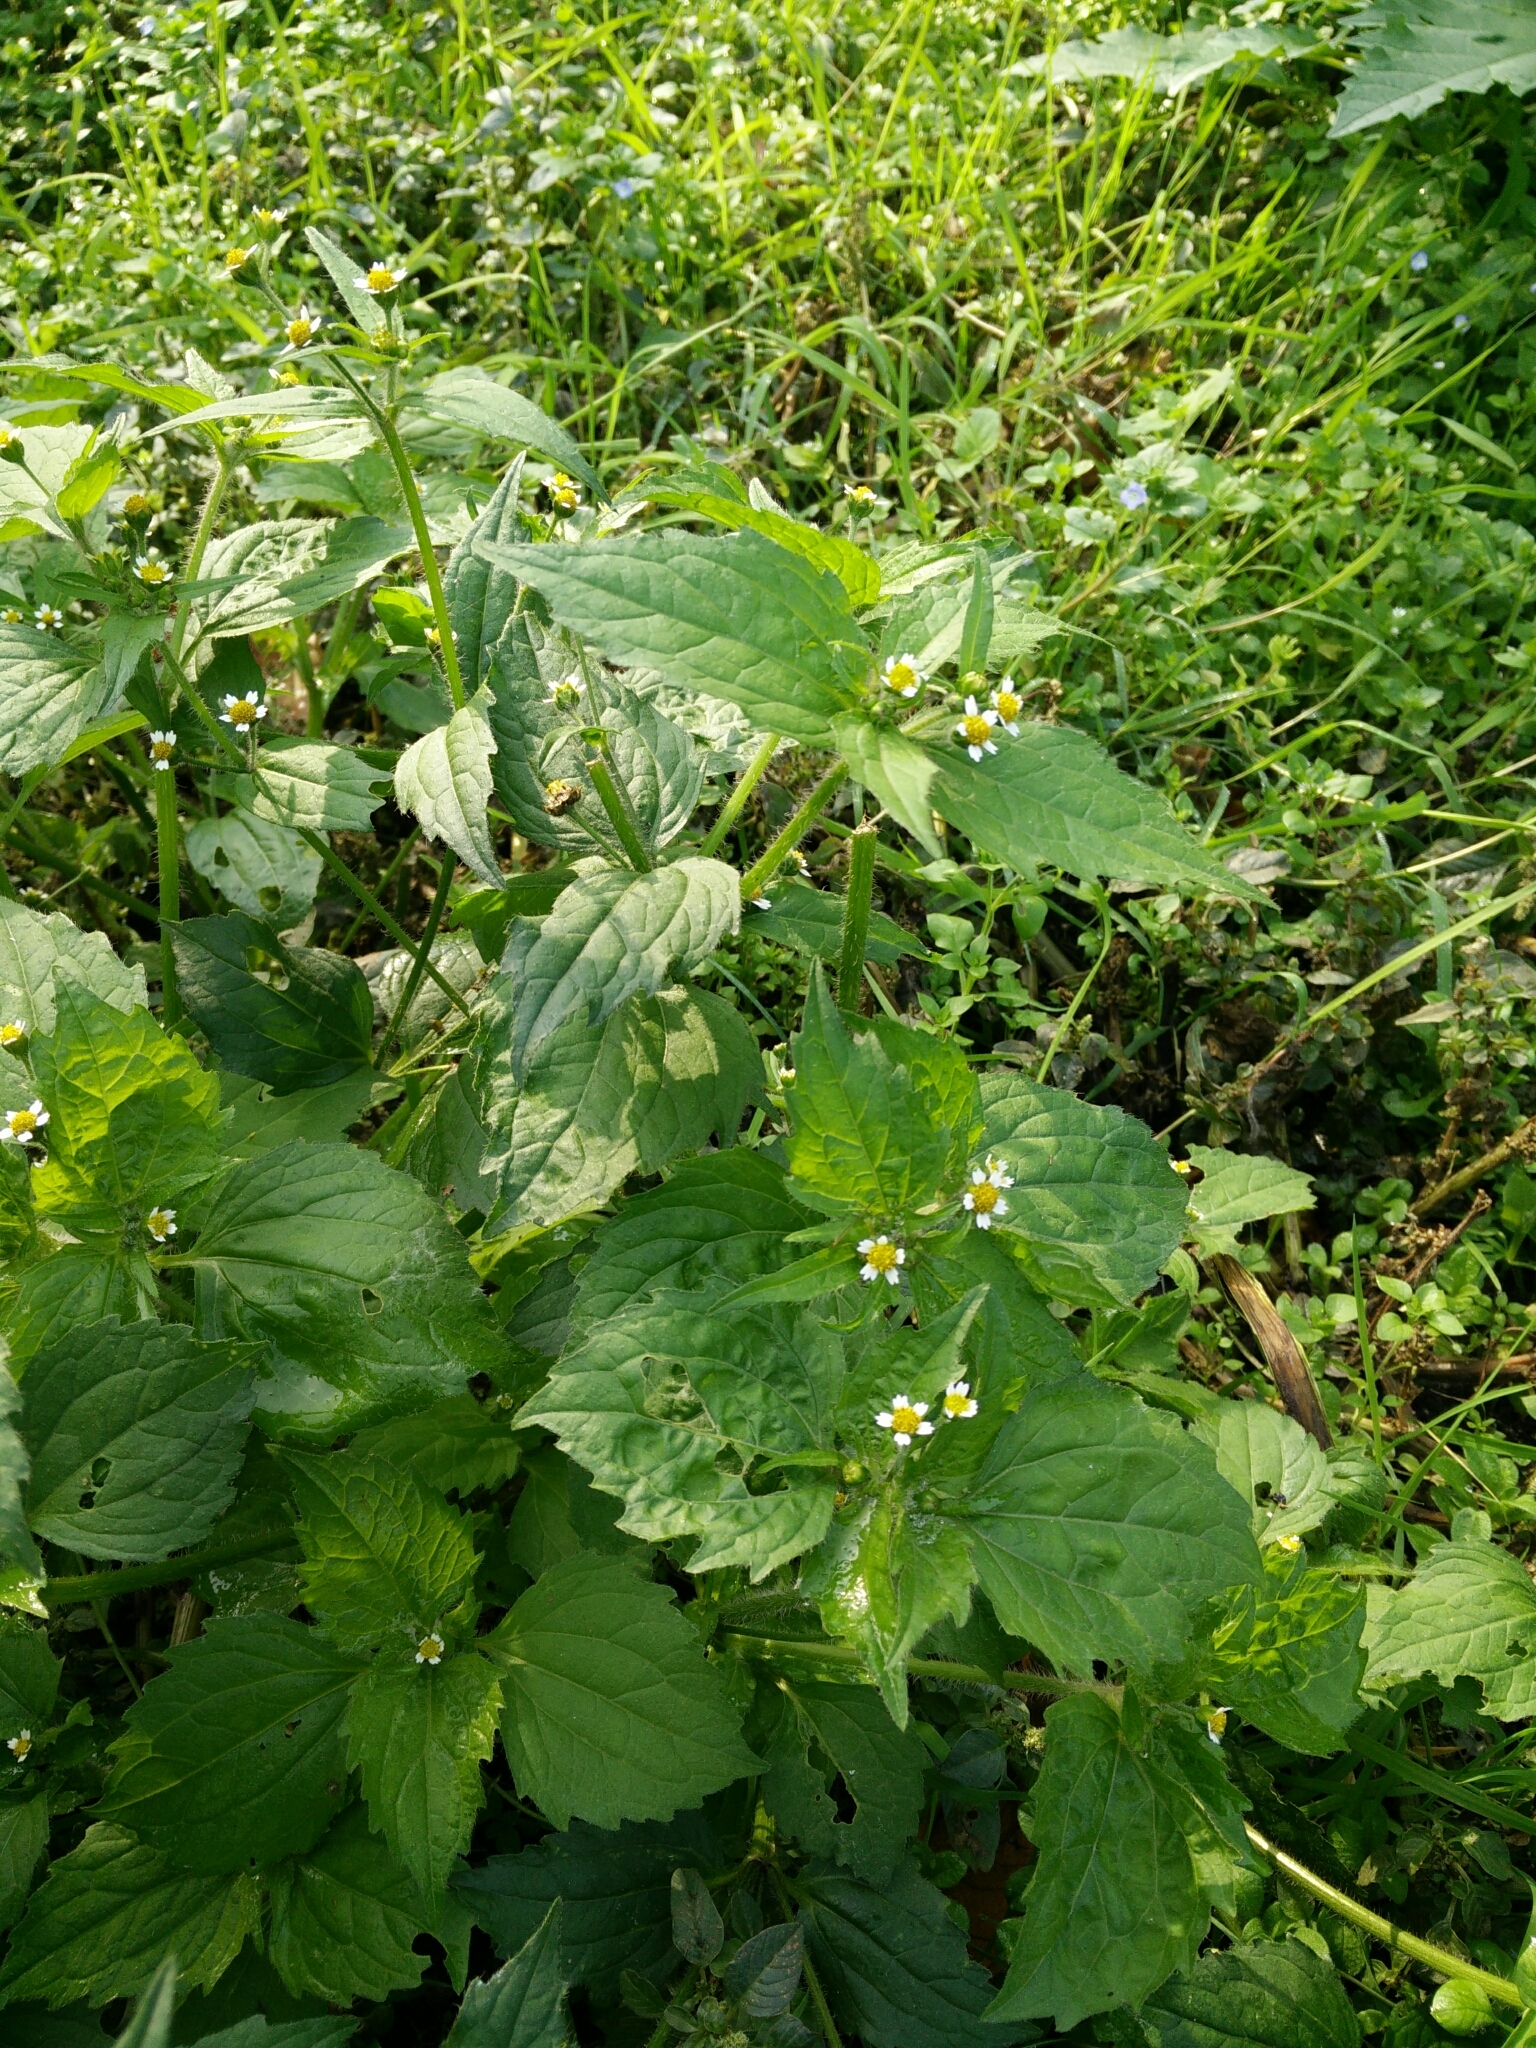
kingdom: Plantae
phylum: Tracheophyta
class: Magnoliopsida
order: Asterales
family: Asteraceae
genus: Galinsoga
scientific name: Galinsoga quadriradiata
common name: Shaggy soldier
